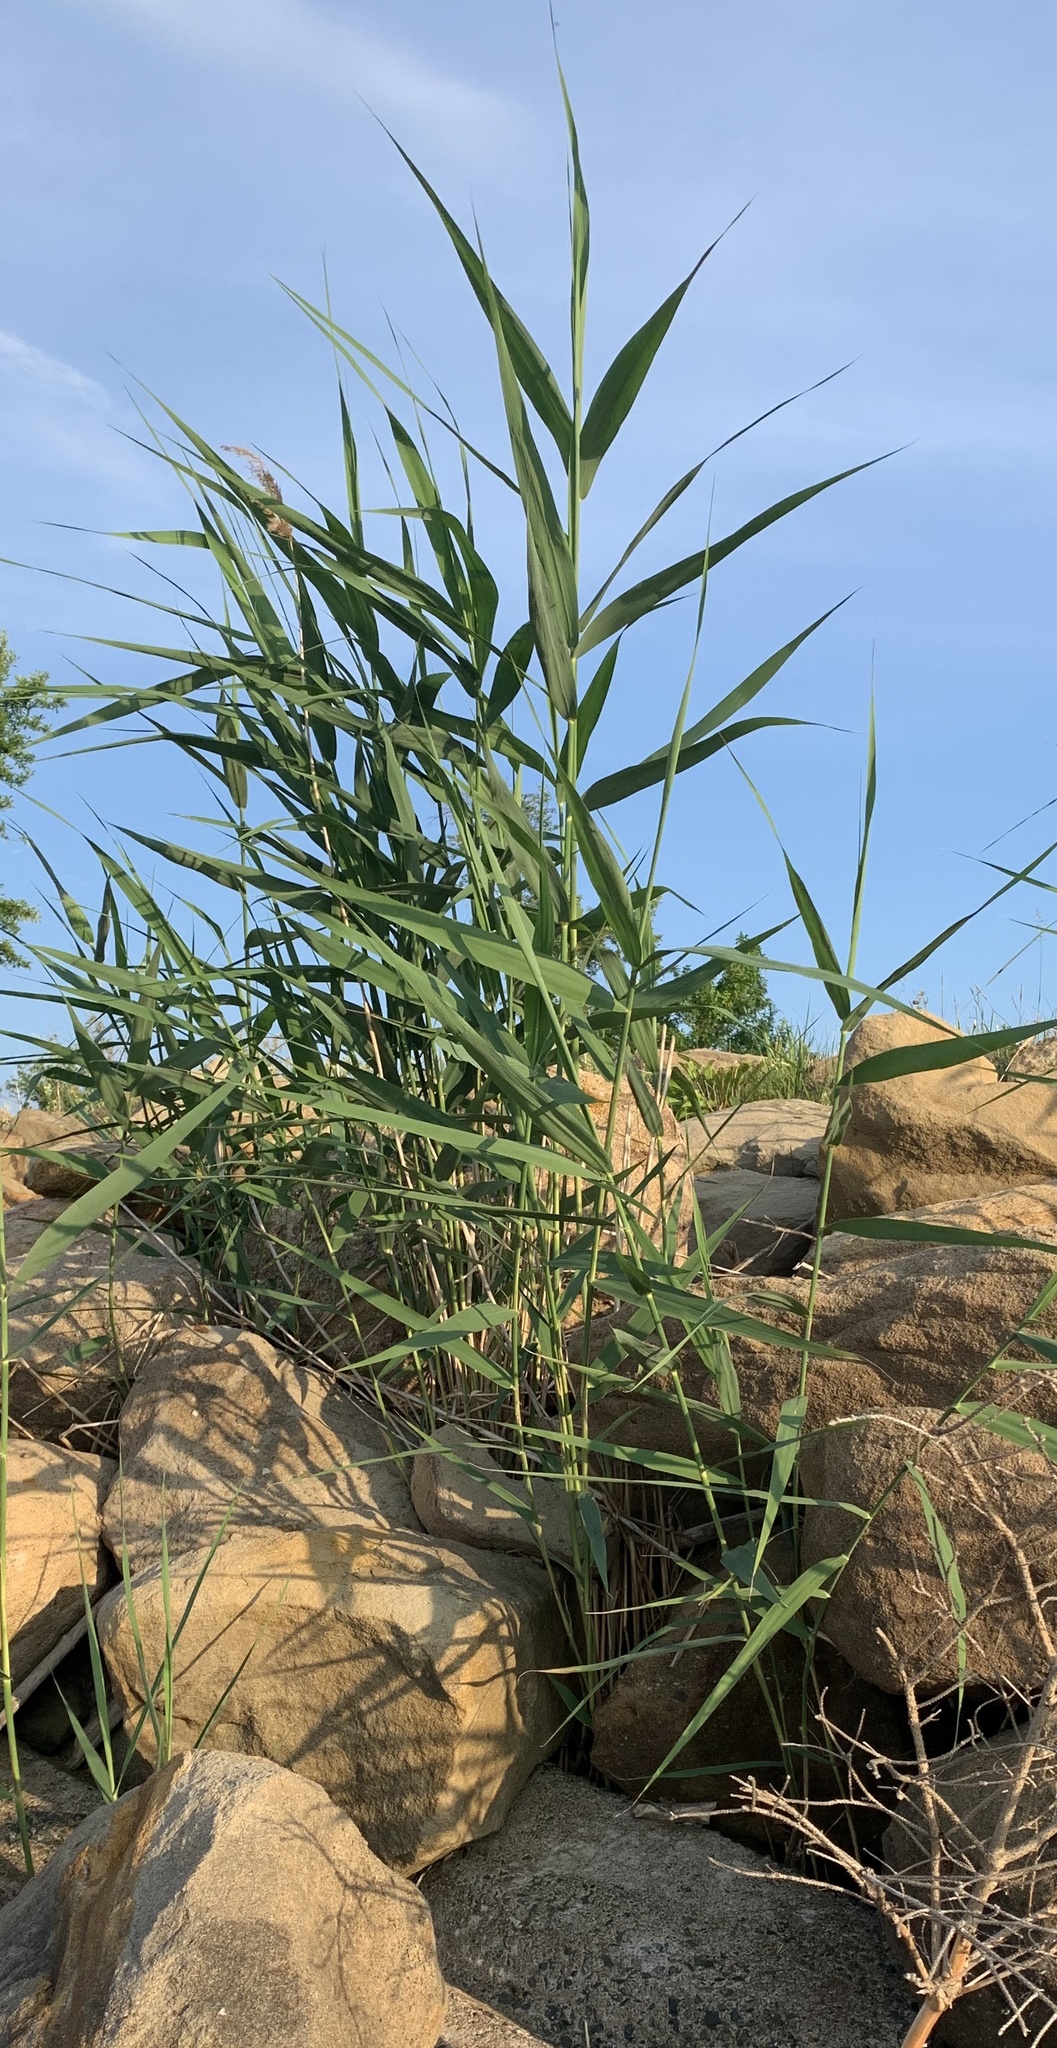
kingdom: Plantae
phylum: Tracheophyta
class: Liliopsida
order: Poales
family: Poaceae
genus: Phragmites
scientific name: Phragmites australis
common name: Common reed
